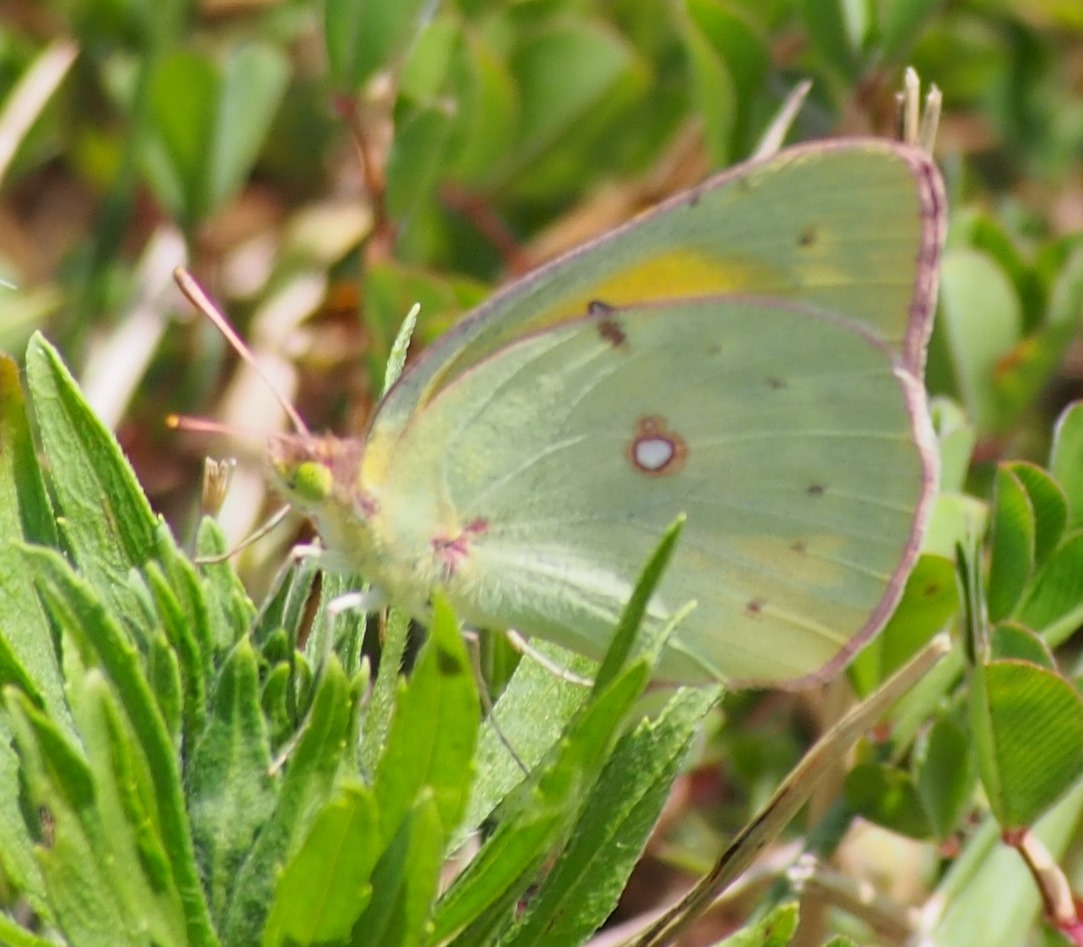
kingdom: Animalia
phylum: Arthropoda
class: Insecta
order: Lepidoptera
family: Pieridae
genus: Colias
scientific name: Colias eurytheme
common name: Alfalfa butterfly
